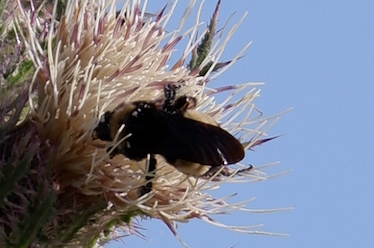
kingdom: Animalia
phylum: Arthropoda
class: Insecta
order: Hymenoptera
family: Apidae
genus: Bombus
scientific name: Bombus pensylvanicus
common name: Bumble bee
